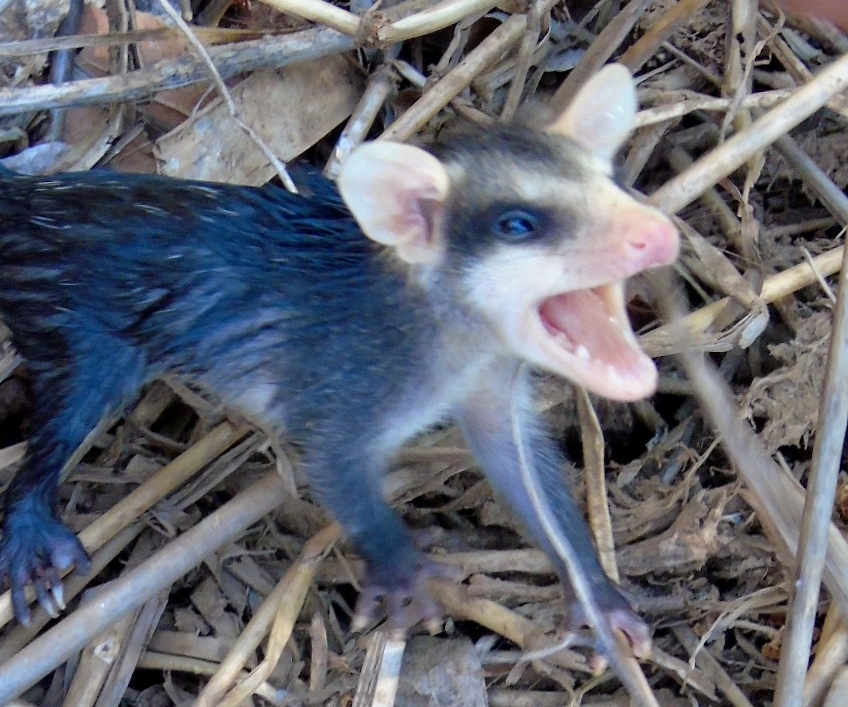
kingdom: Animalia
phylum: Chordata
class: Mammalia
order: Didelphimorphia
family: Didelphidae
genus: Didelphis
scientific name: Didelphis virginiana
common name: Virginia opossum
